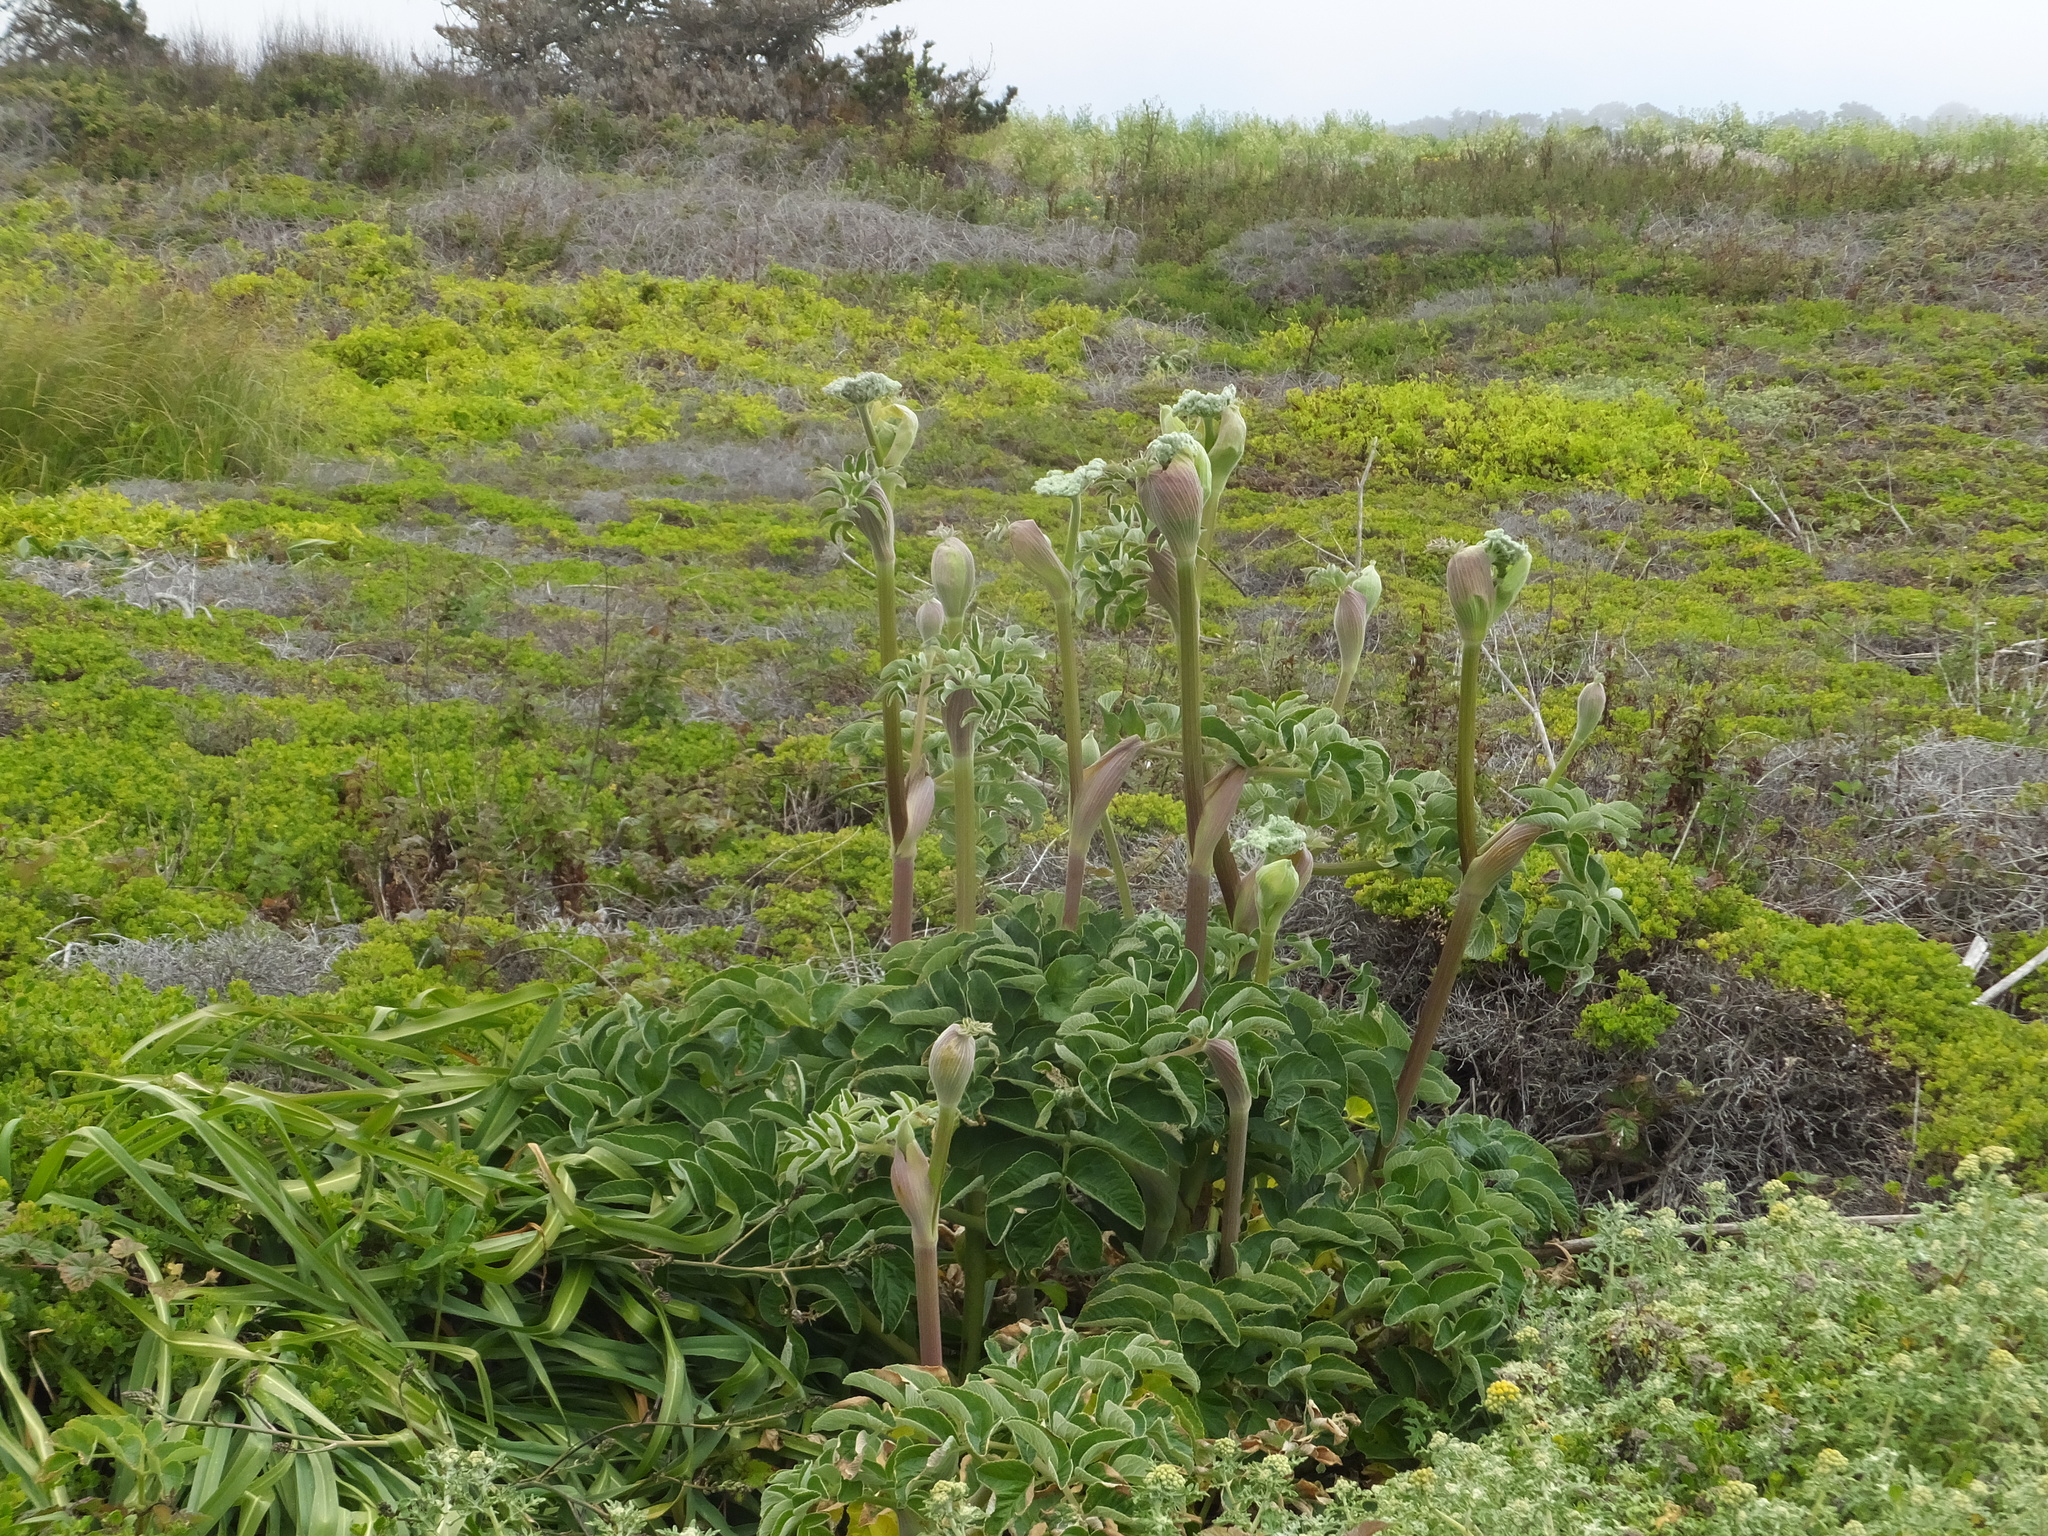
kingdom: Plantae
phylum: Tracheophyta
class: Magnoliopsida
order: Apiales
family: Apiaceae
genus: Angelica
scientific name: Angelica hendersonii
